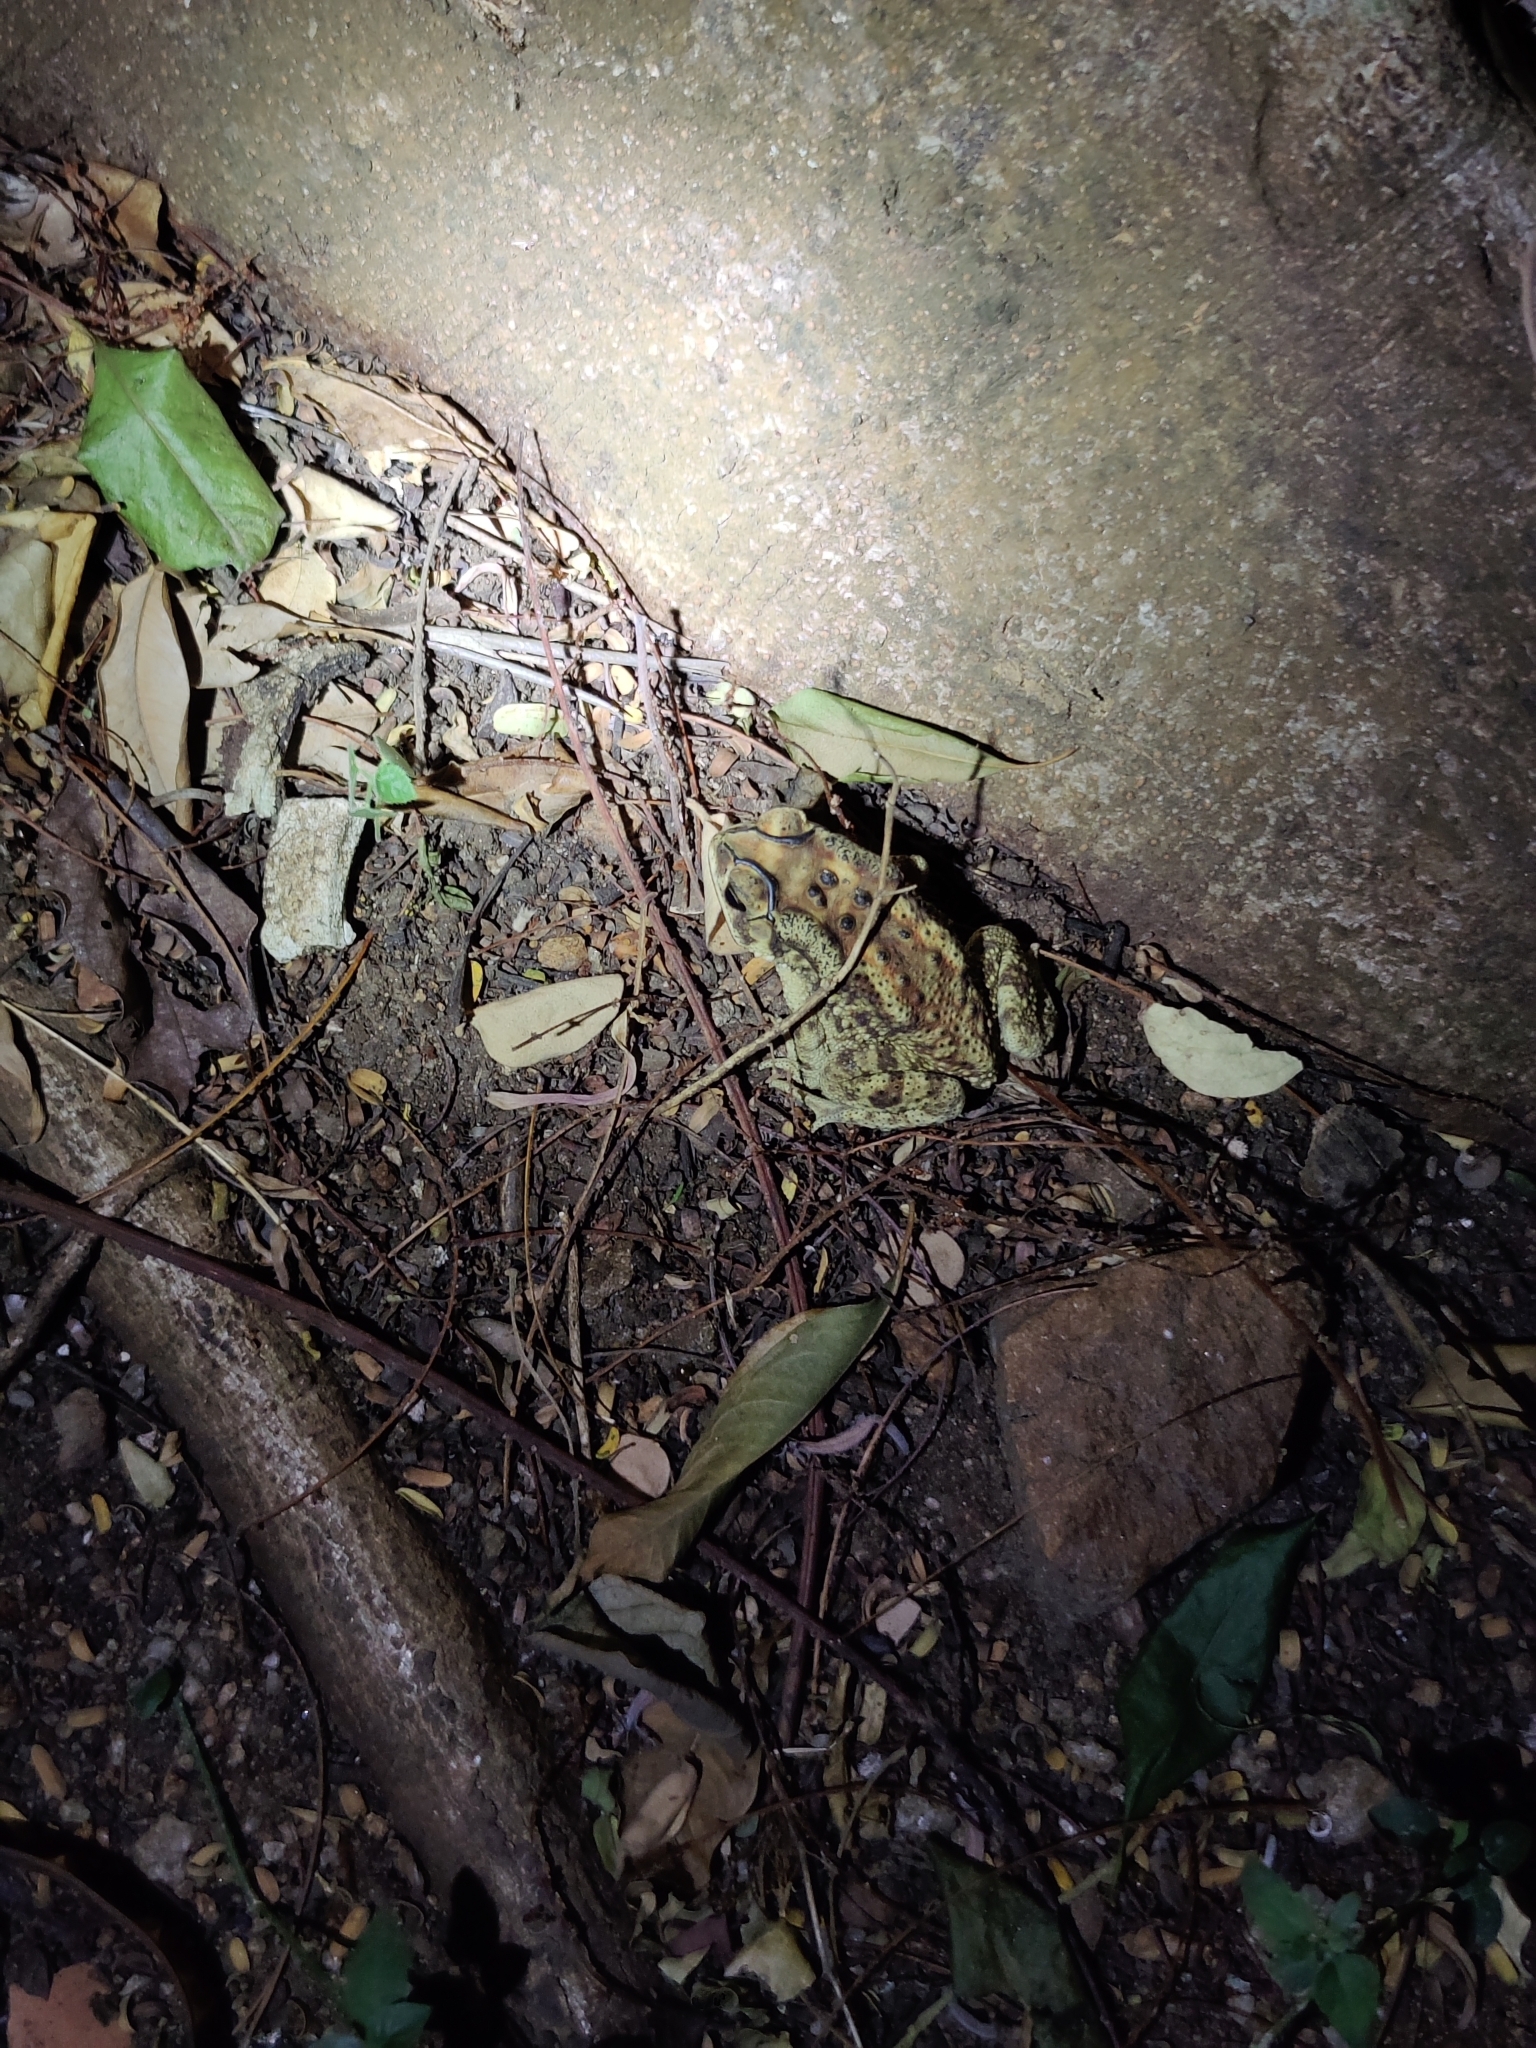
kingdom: Animalia
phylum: Chordata
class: Amphibia
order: Anura
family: Bufonidae
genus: Duttaphrynus
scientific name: Duttaphrynus melanostictus
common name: Common sunda toad
